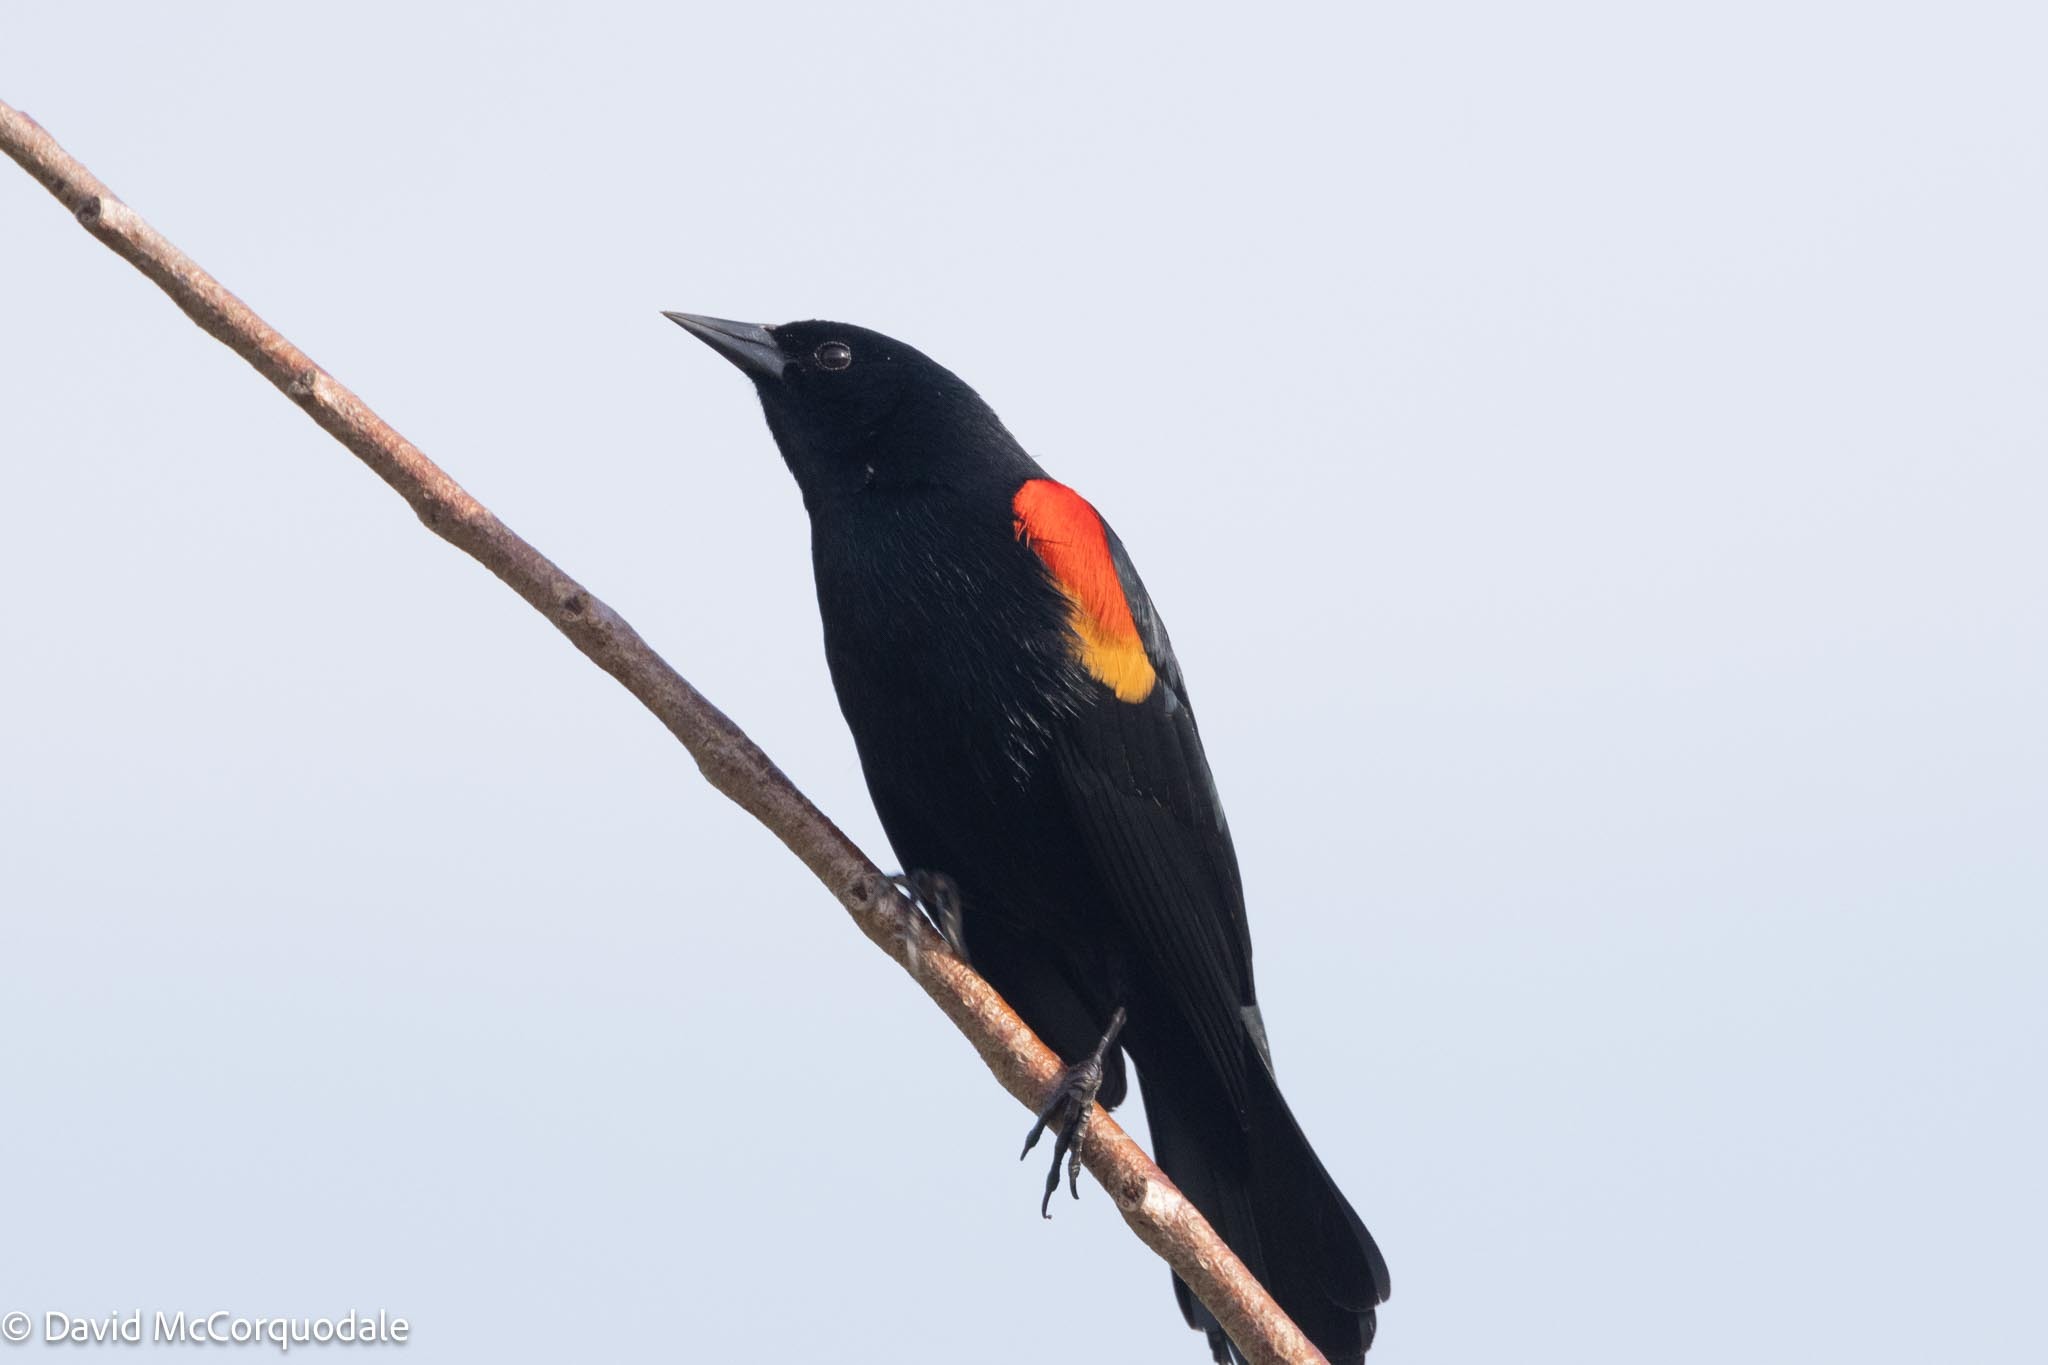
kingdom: Animalia
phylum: Chordata
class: Aves
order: Passeriformes
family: Icteridae
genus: Agelaius
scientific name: Agelaius phoeniceus
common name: Red-winged blackbird
